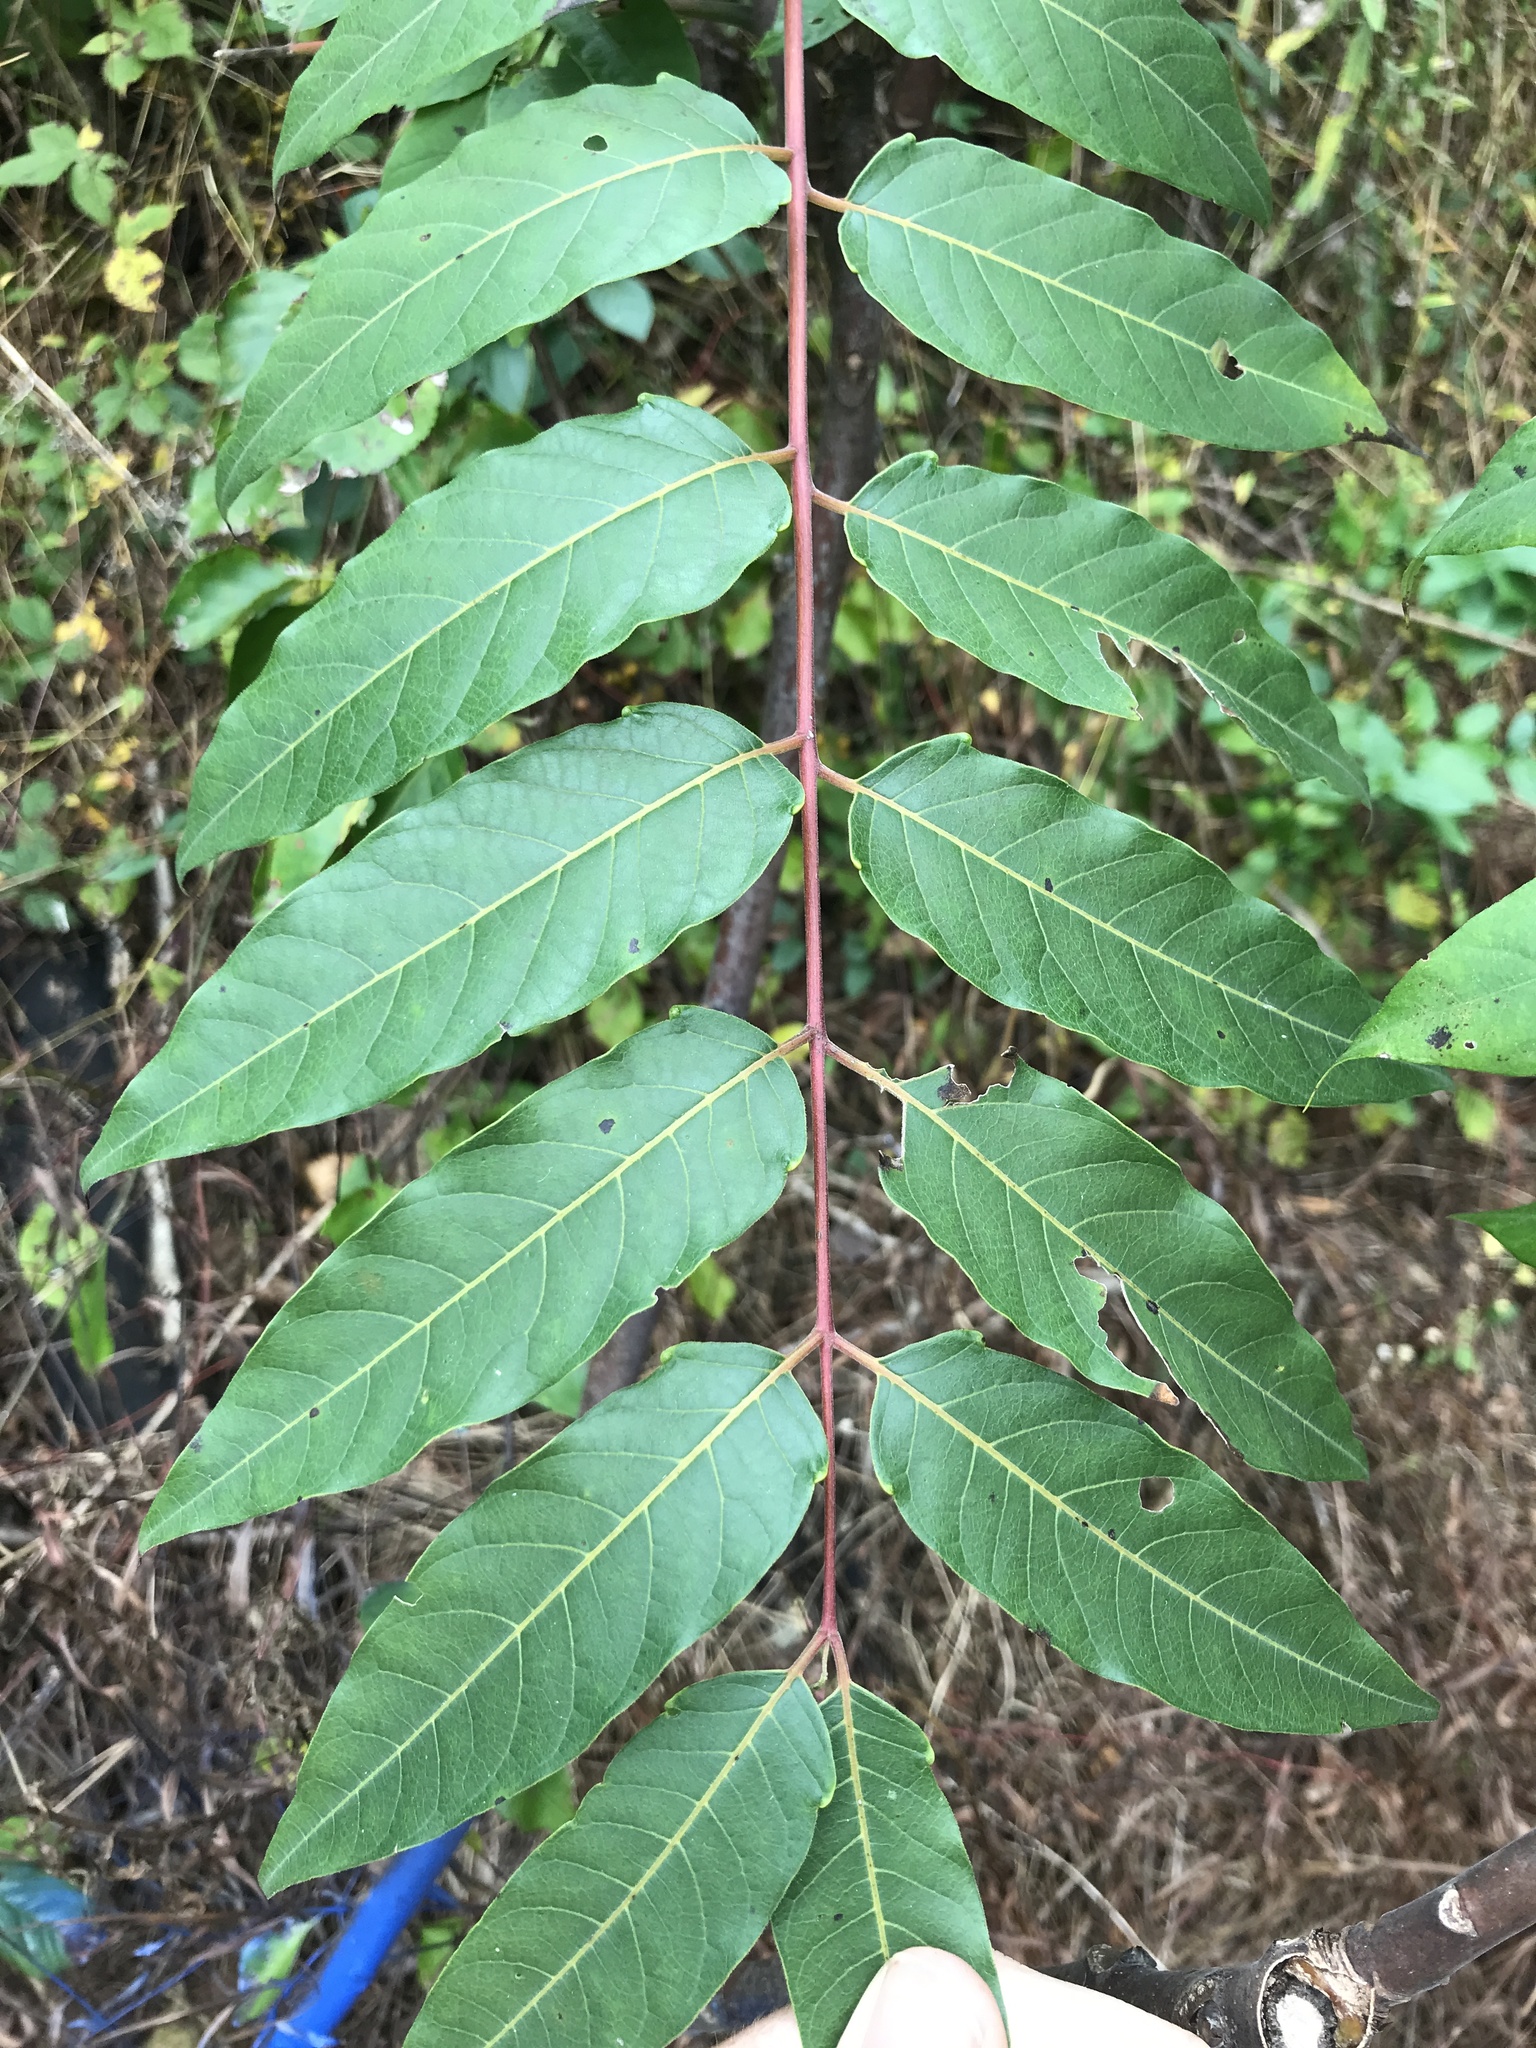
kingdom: Plantae
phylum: Tracheophyta
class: Magnoliopsida
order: Sapindales
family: Simaroubaceae
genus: Ailanthus
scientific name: Ailanthus altissima
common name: Tree-of-heaven
